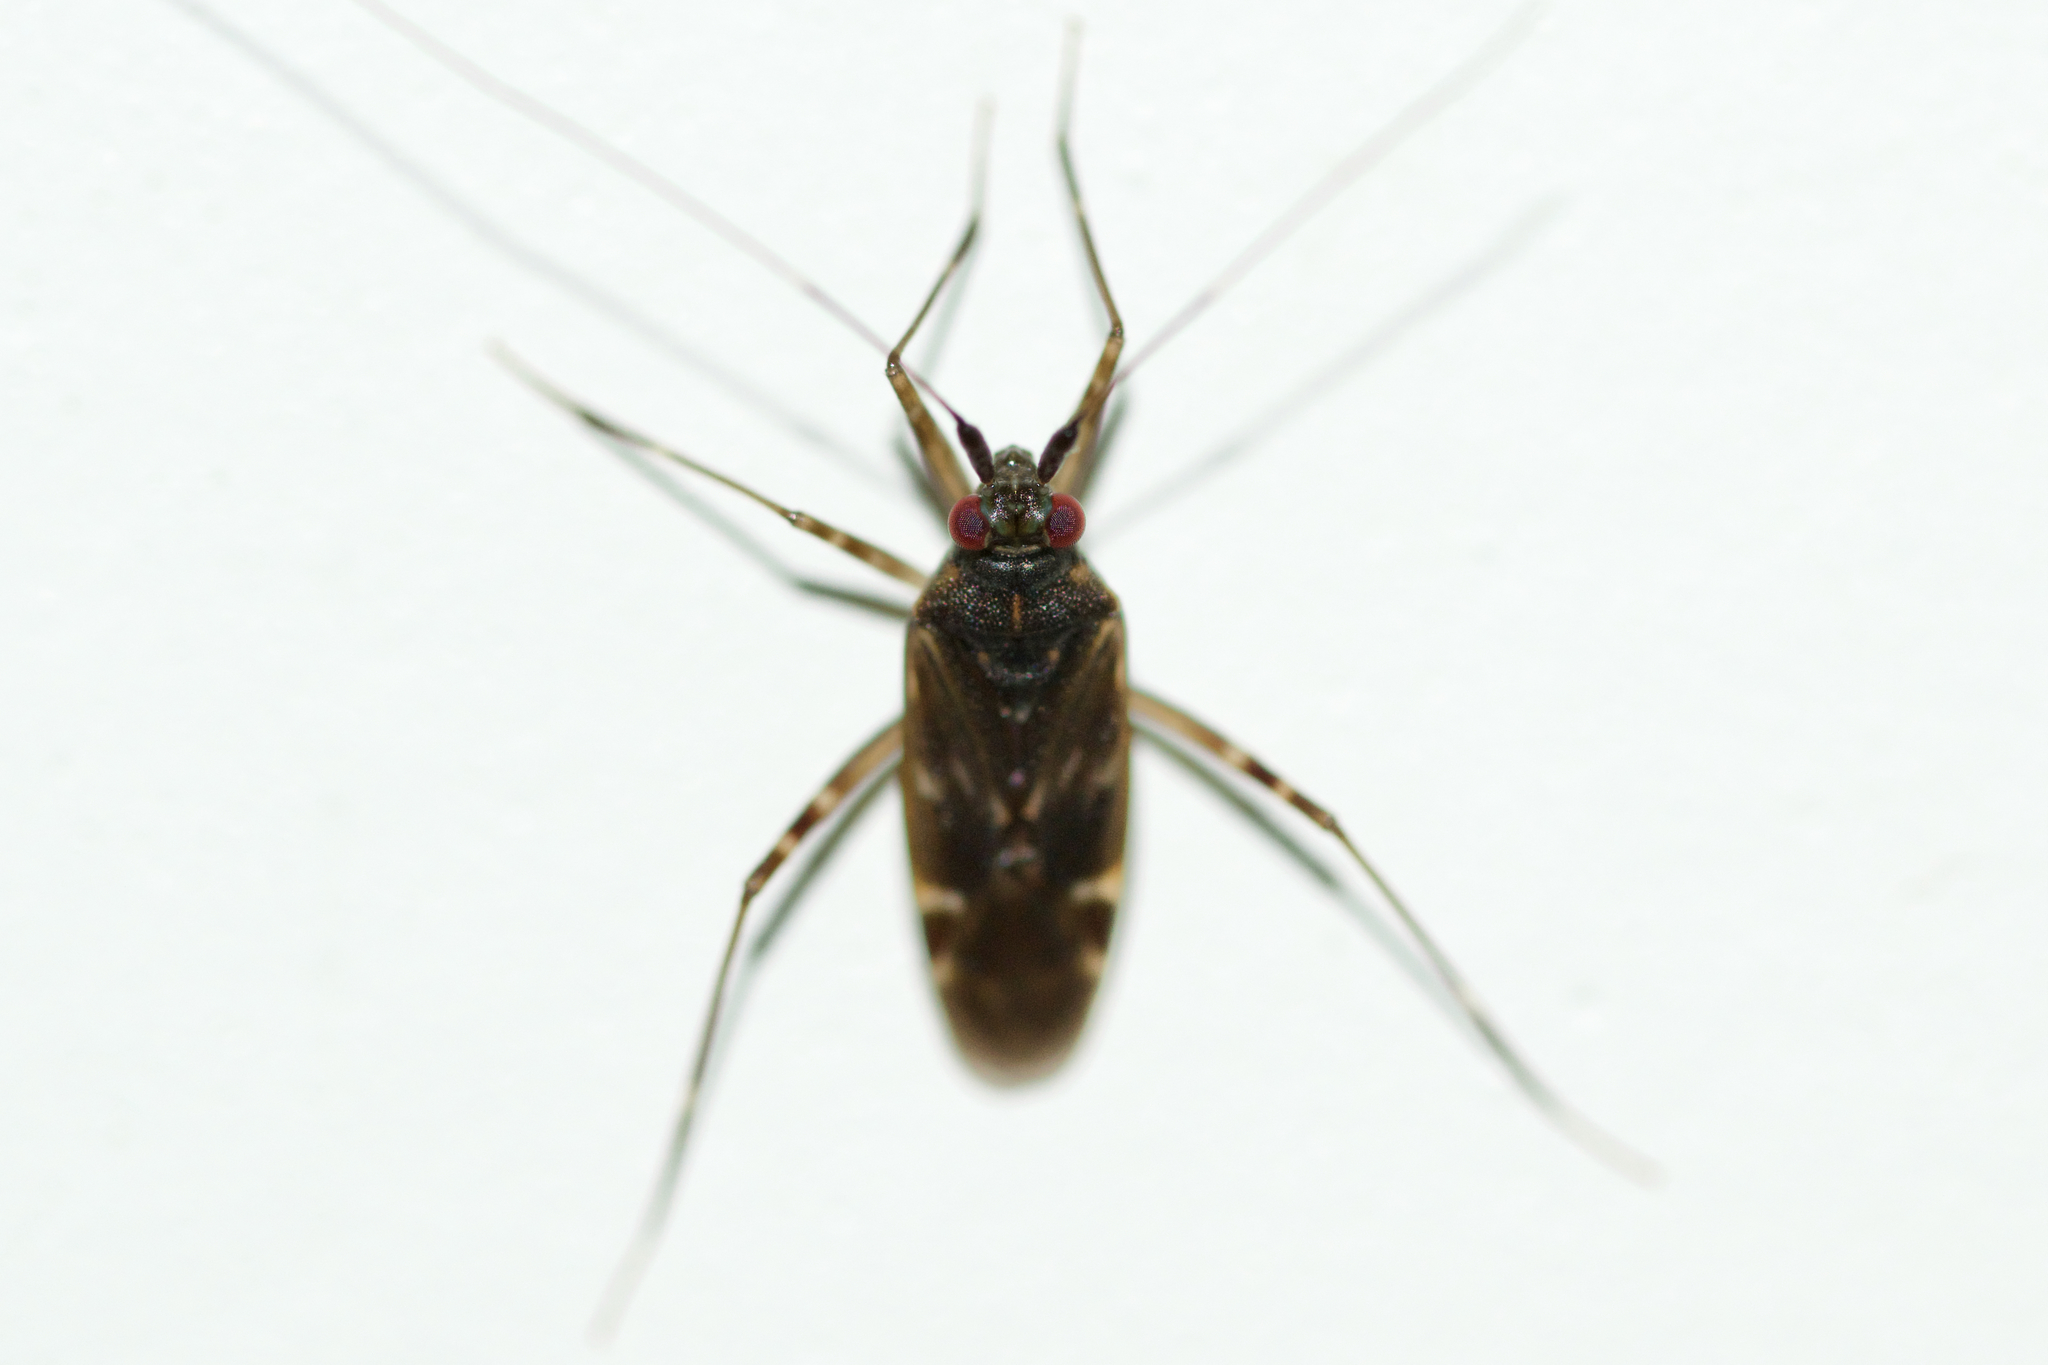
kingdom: Animalia
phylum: Arthropoda
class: Insecta
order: Hemiptera
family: Miridae
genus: Cylapus
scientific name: Cylapus tenuicornis
